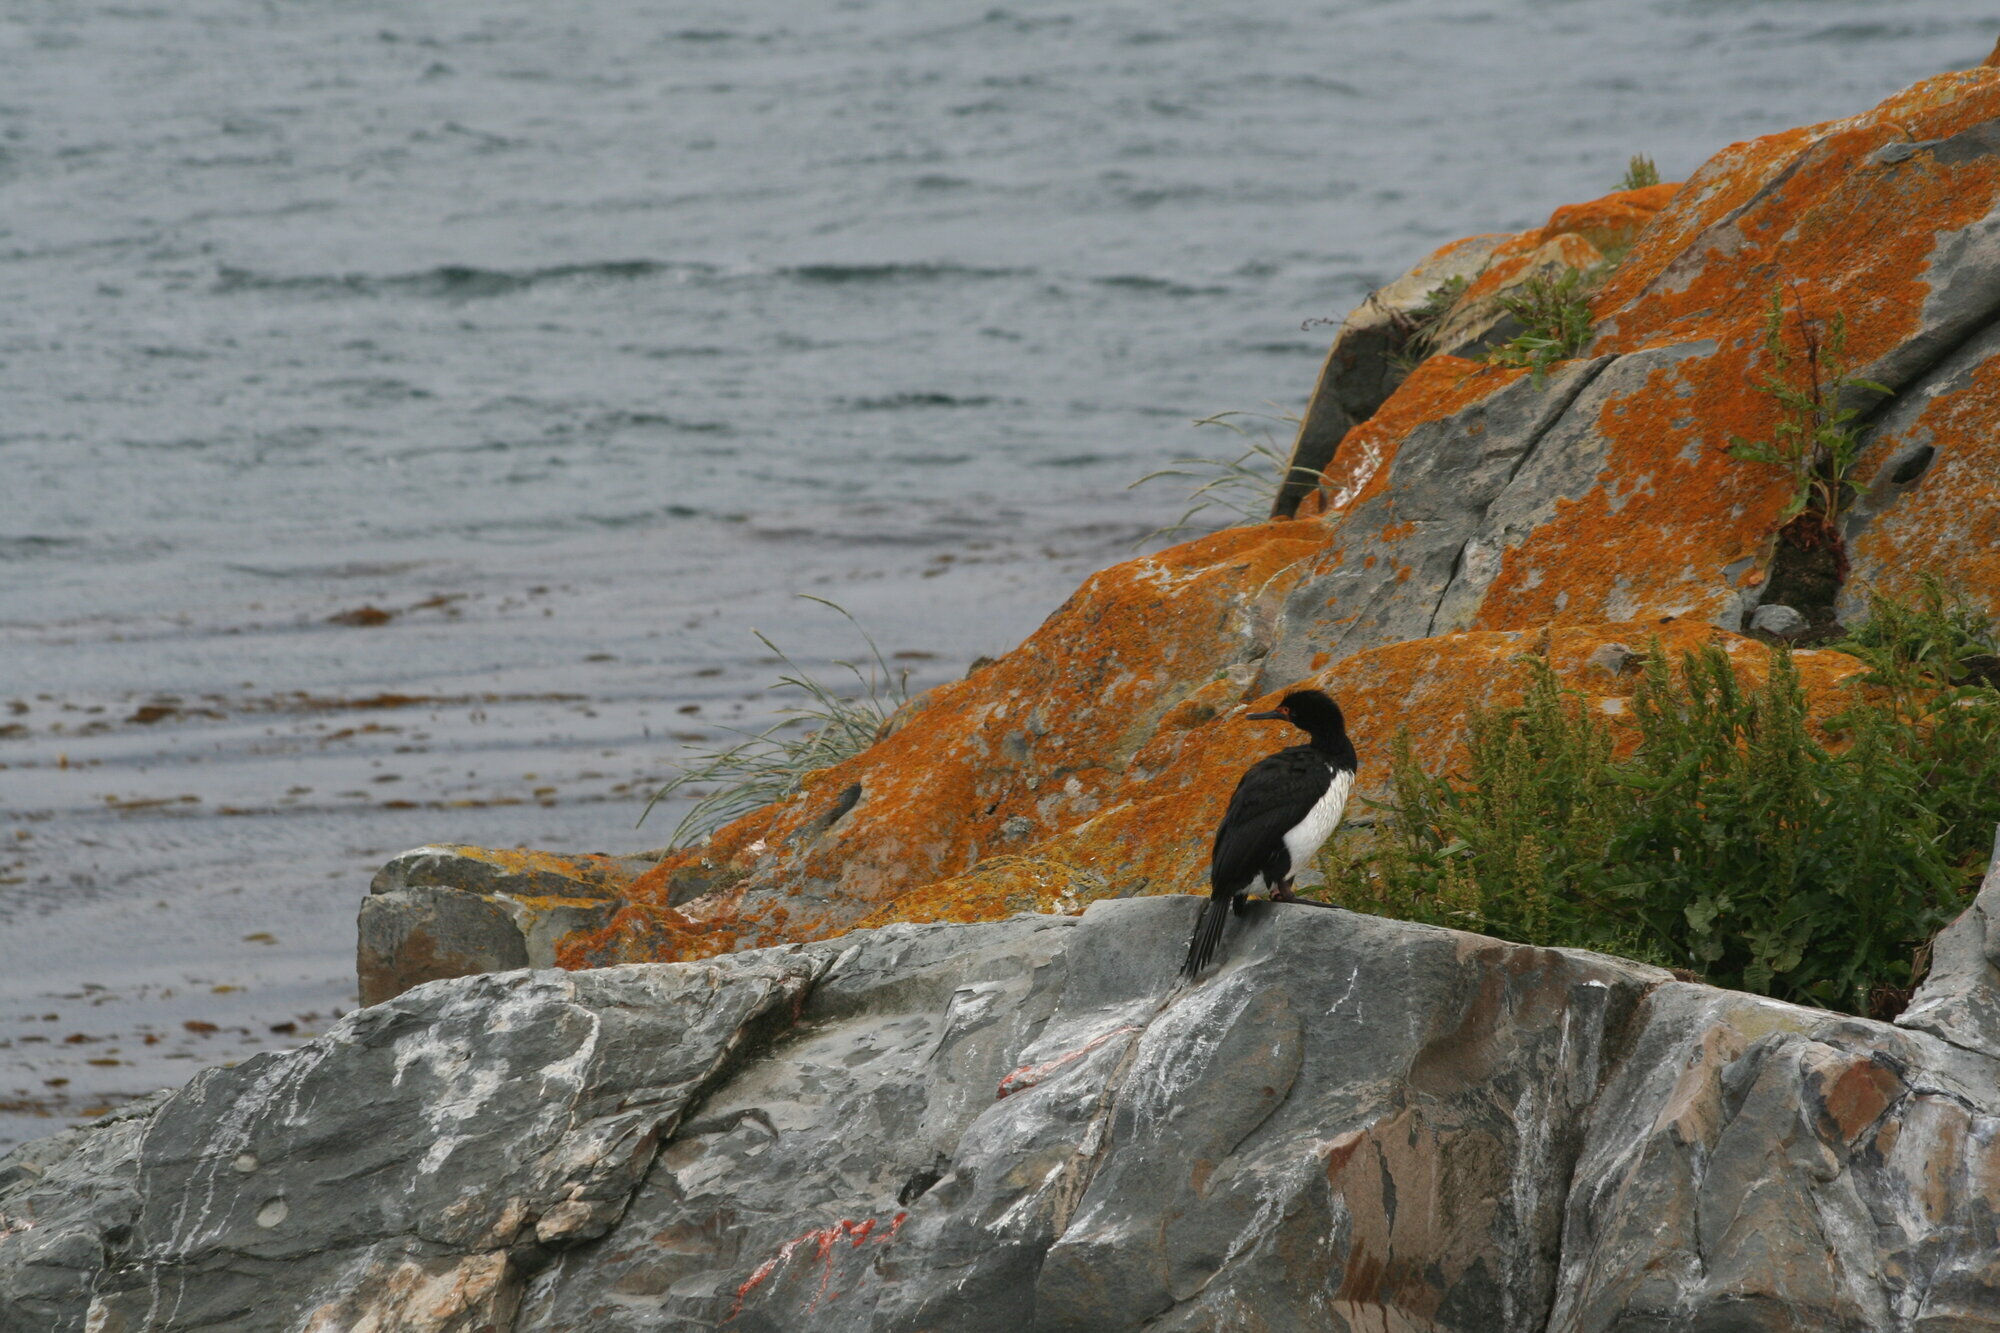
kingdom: Animalia
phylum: Chordata
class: Aves
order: Suliformes
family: Phalacrocoracidae
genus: Phalacrocorax
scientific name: Phalacrocorax magellanicus
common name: Rock shag
